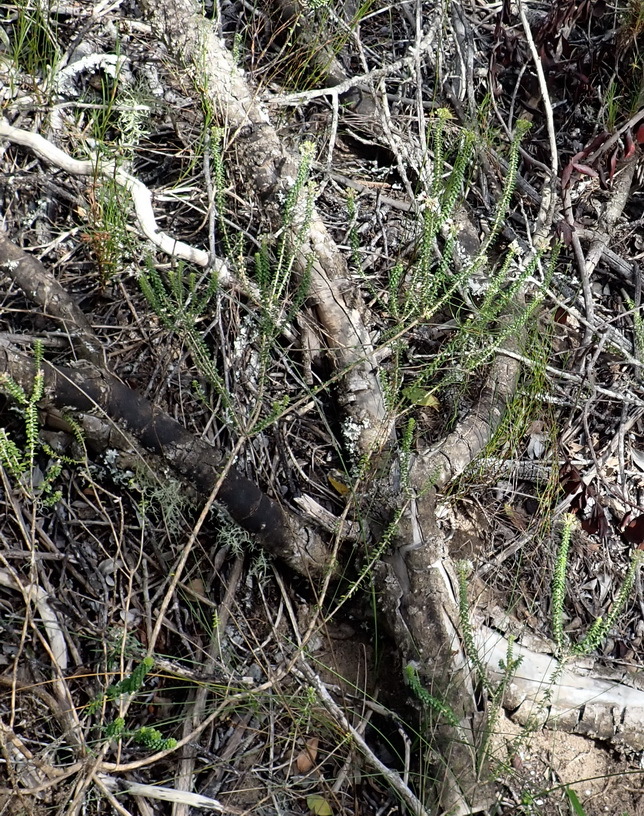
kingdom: Plantae
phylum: Tracheophyta
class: Magnoliopsida
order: Sapindales
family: Rutaceae
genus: Agathosma
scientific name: Agathosma muirii
